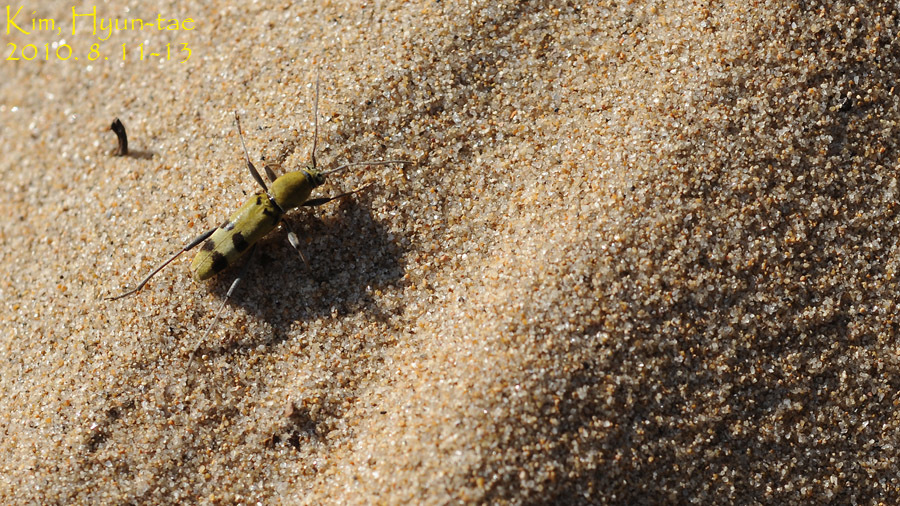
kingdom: Animalia
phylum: Arthropoda
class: Insecta
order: Coleoptera
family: Cerambycidae
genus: Chlorophorus
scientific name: Chlorophorus muscosus
